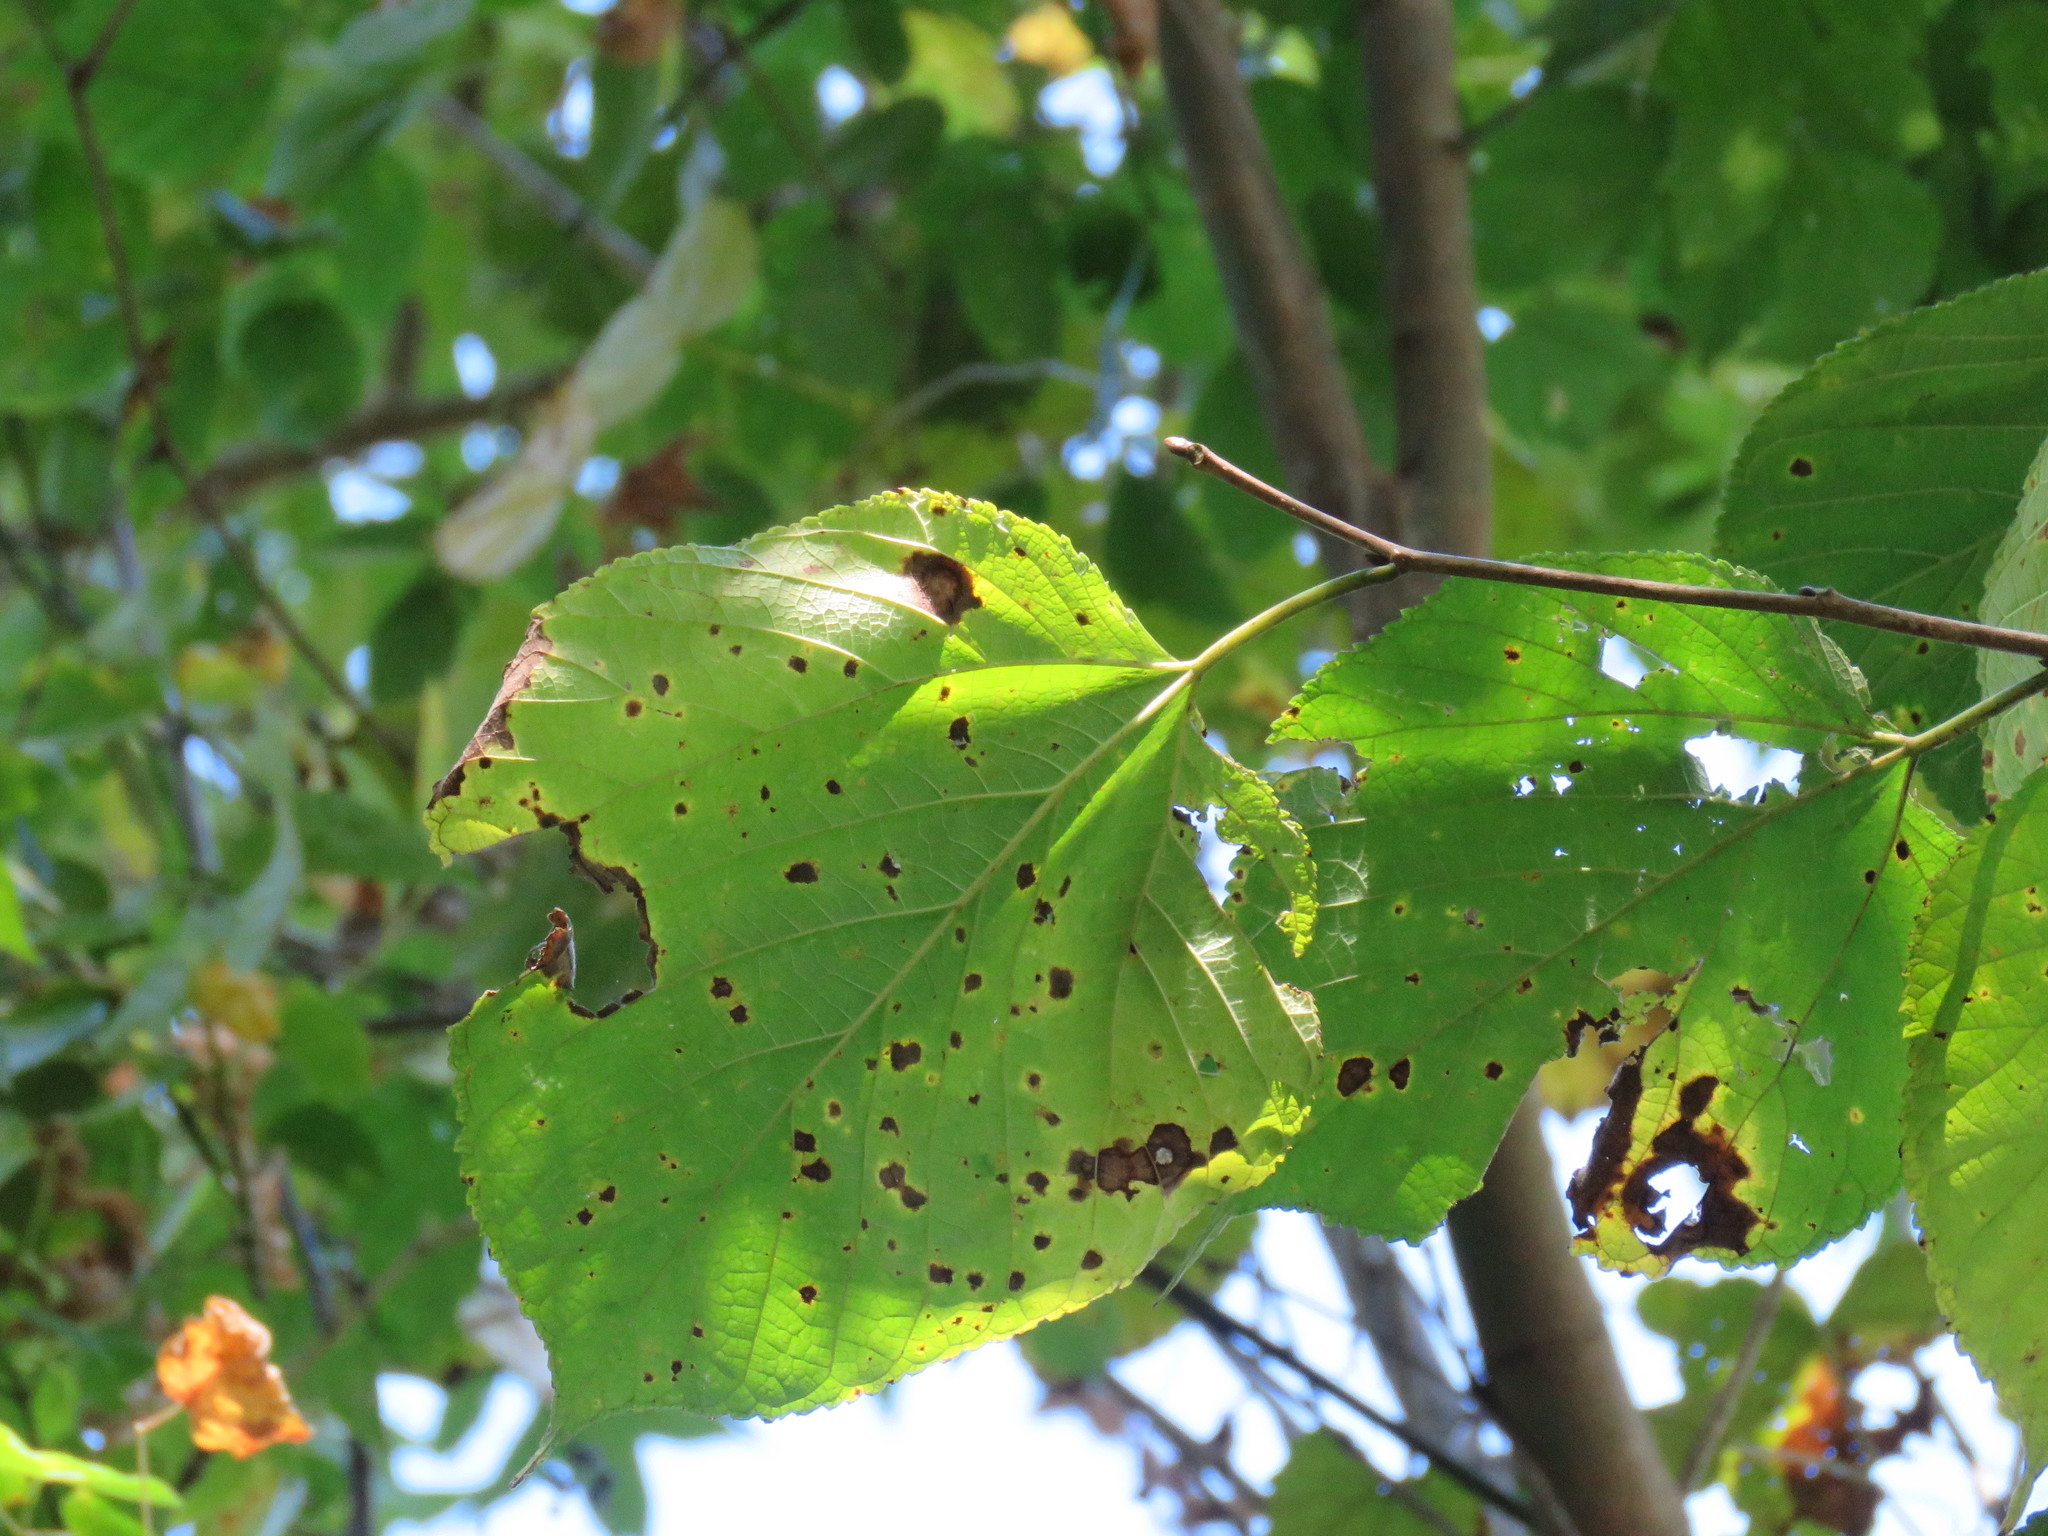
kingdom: Plantae
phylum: Tracheophyta
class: Magnoliopsida
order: Rosales
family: Moraceae
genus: Morus
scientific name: Morus alba
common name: White mulberry
